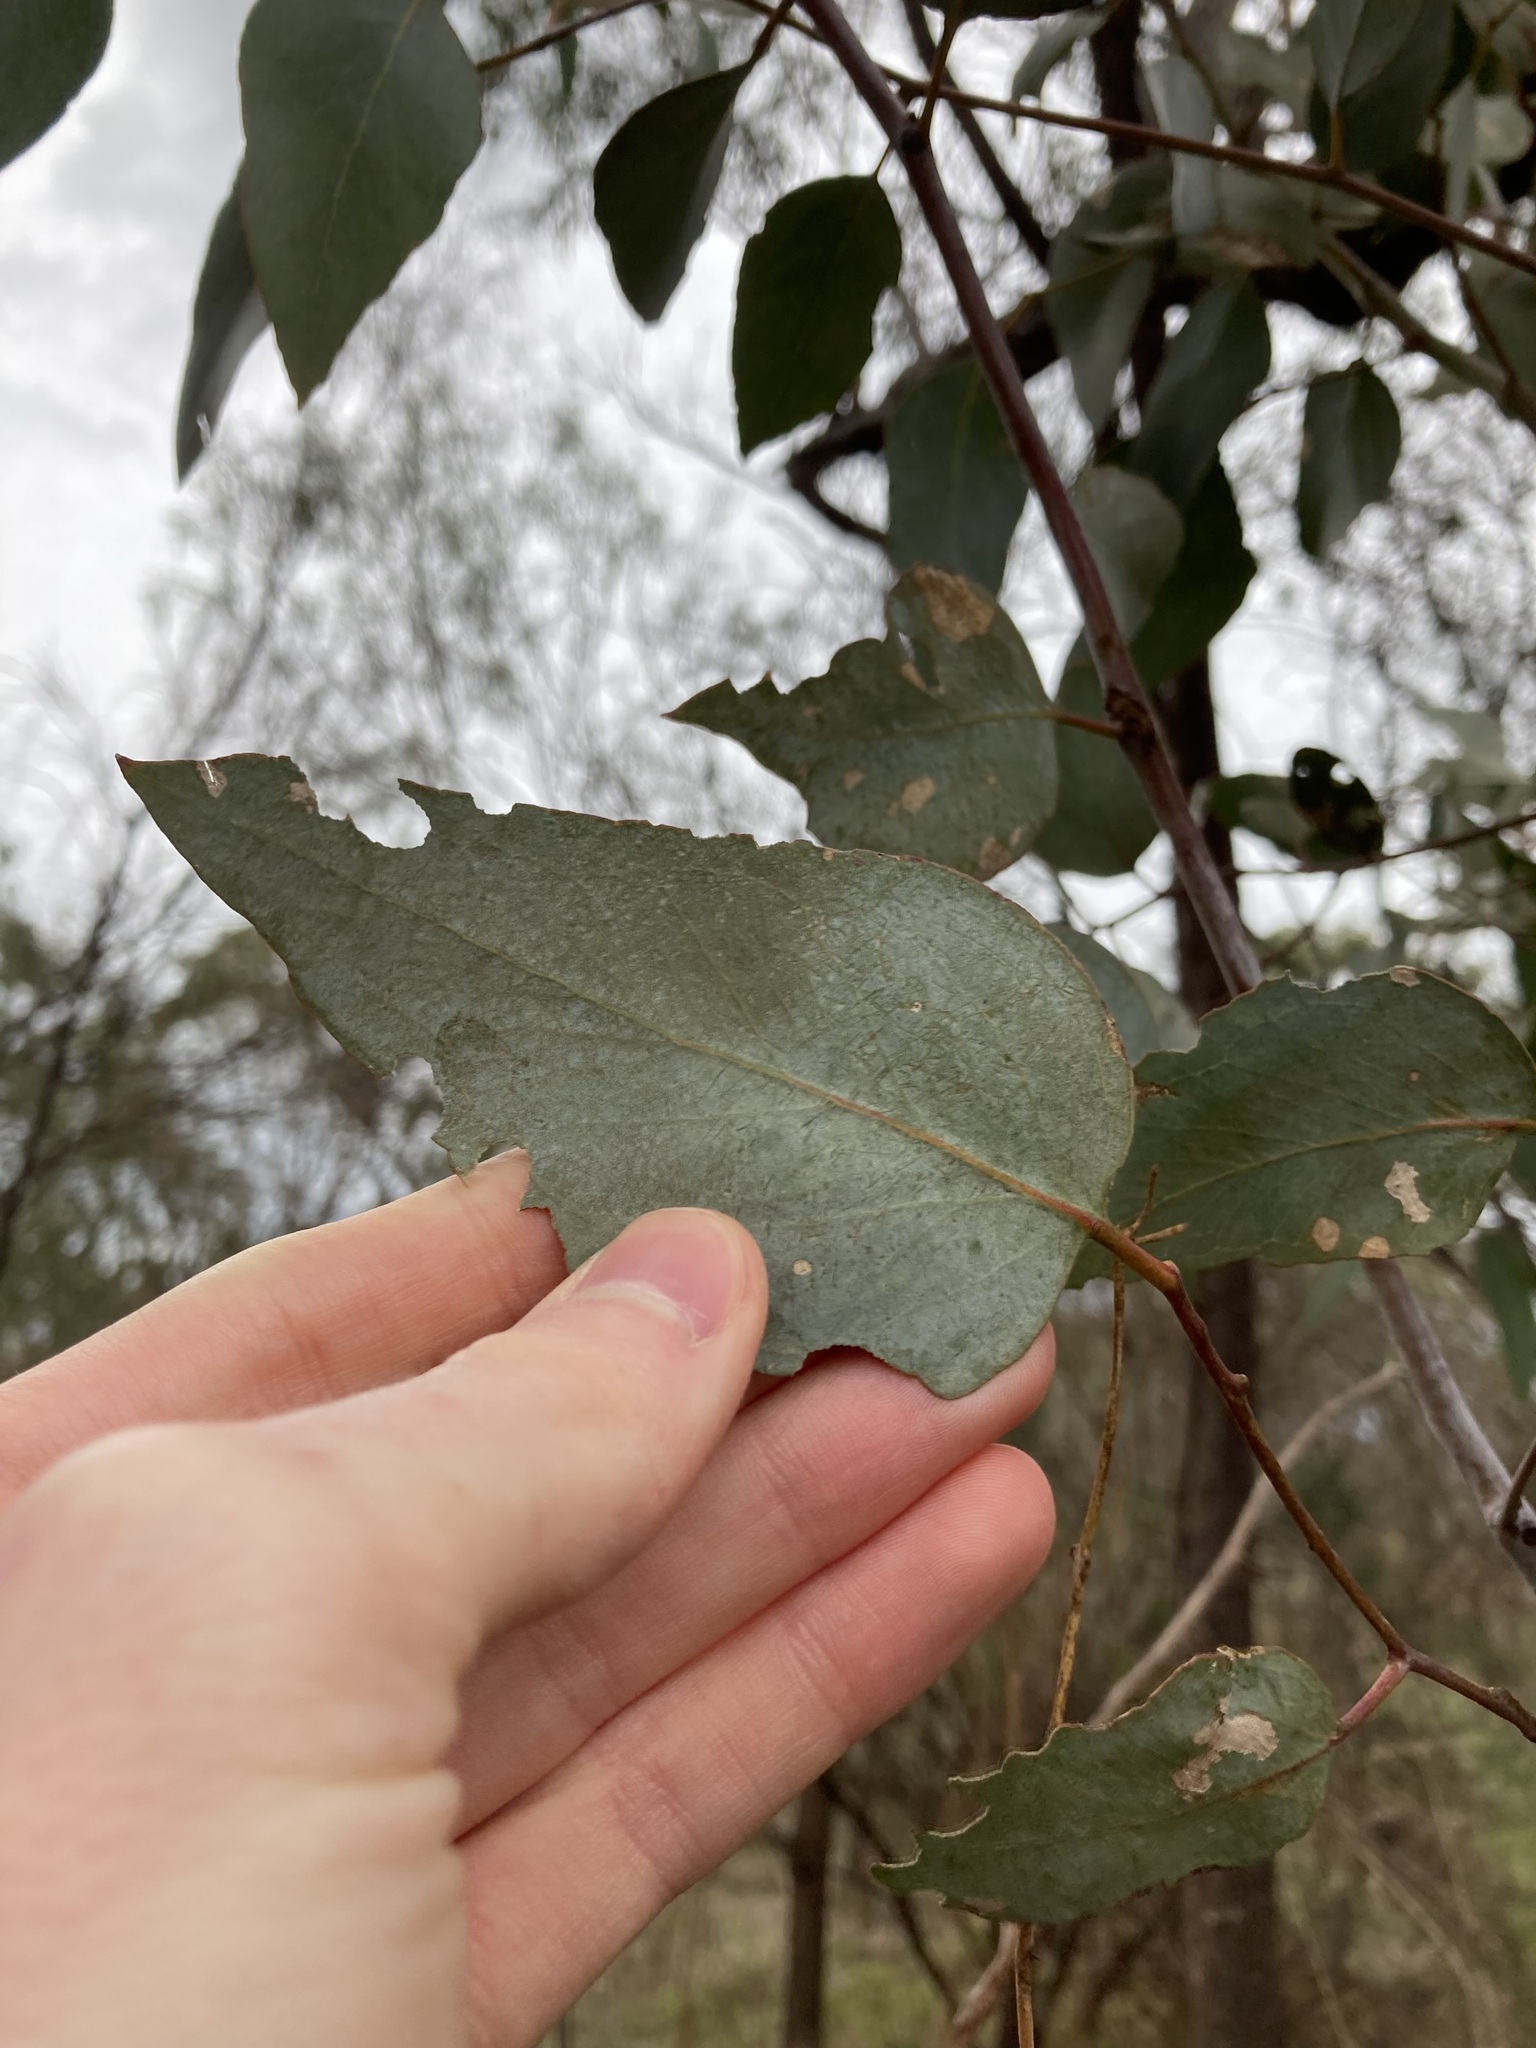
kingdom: Plantae
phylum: Tracheophyta
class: Magnoliopsida
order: Myrtales
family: Myrtaceae
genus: Eucalyptus
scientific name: Eucalyptus loxophleba
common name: York gum
